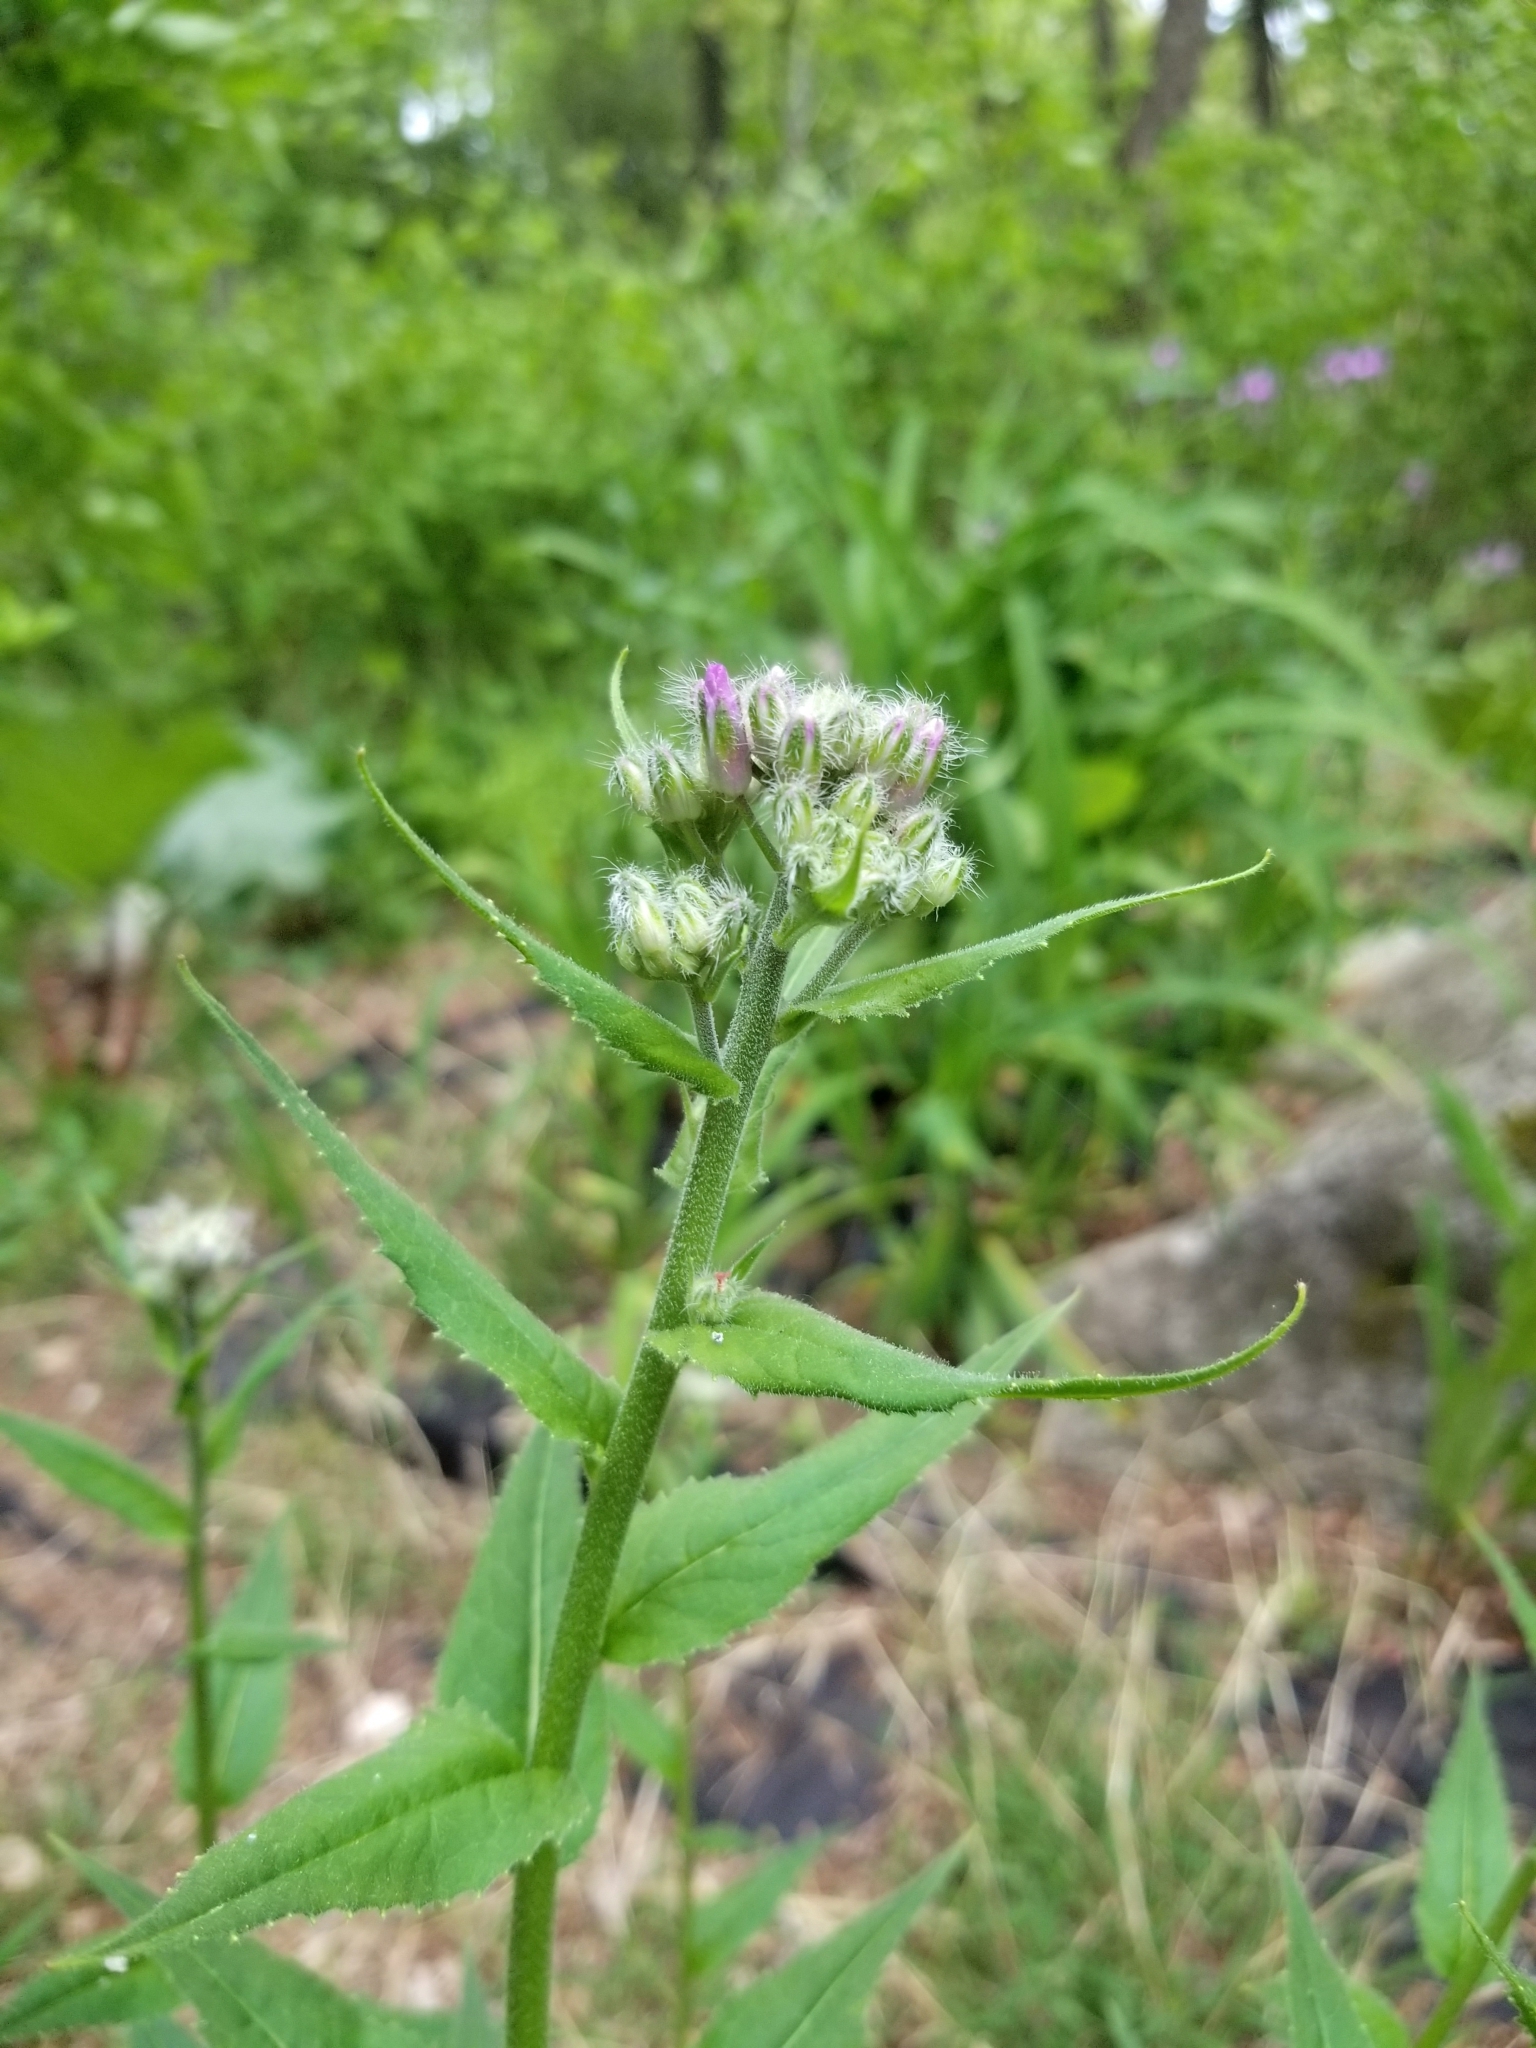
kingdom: Plantae
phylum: Tracheophyta
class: Magnoliopsida
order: Brassicales
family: Brassicaceae
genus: Hesperis
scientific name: Hesperis matronalis
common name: Dame's-violet
